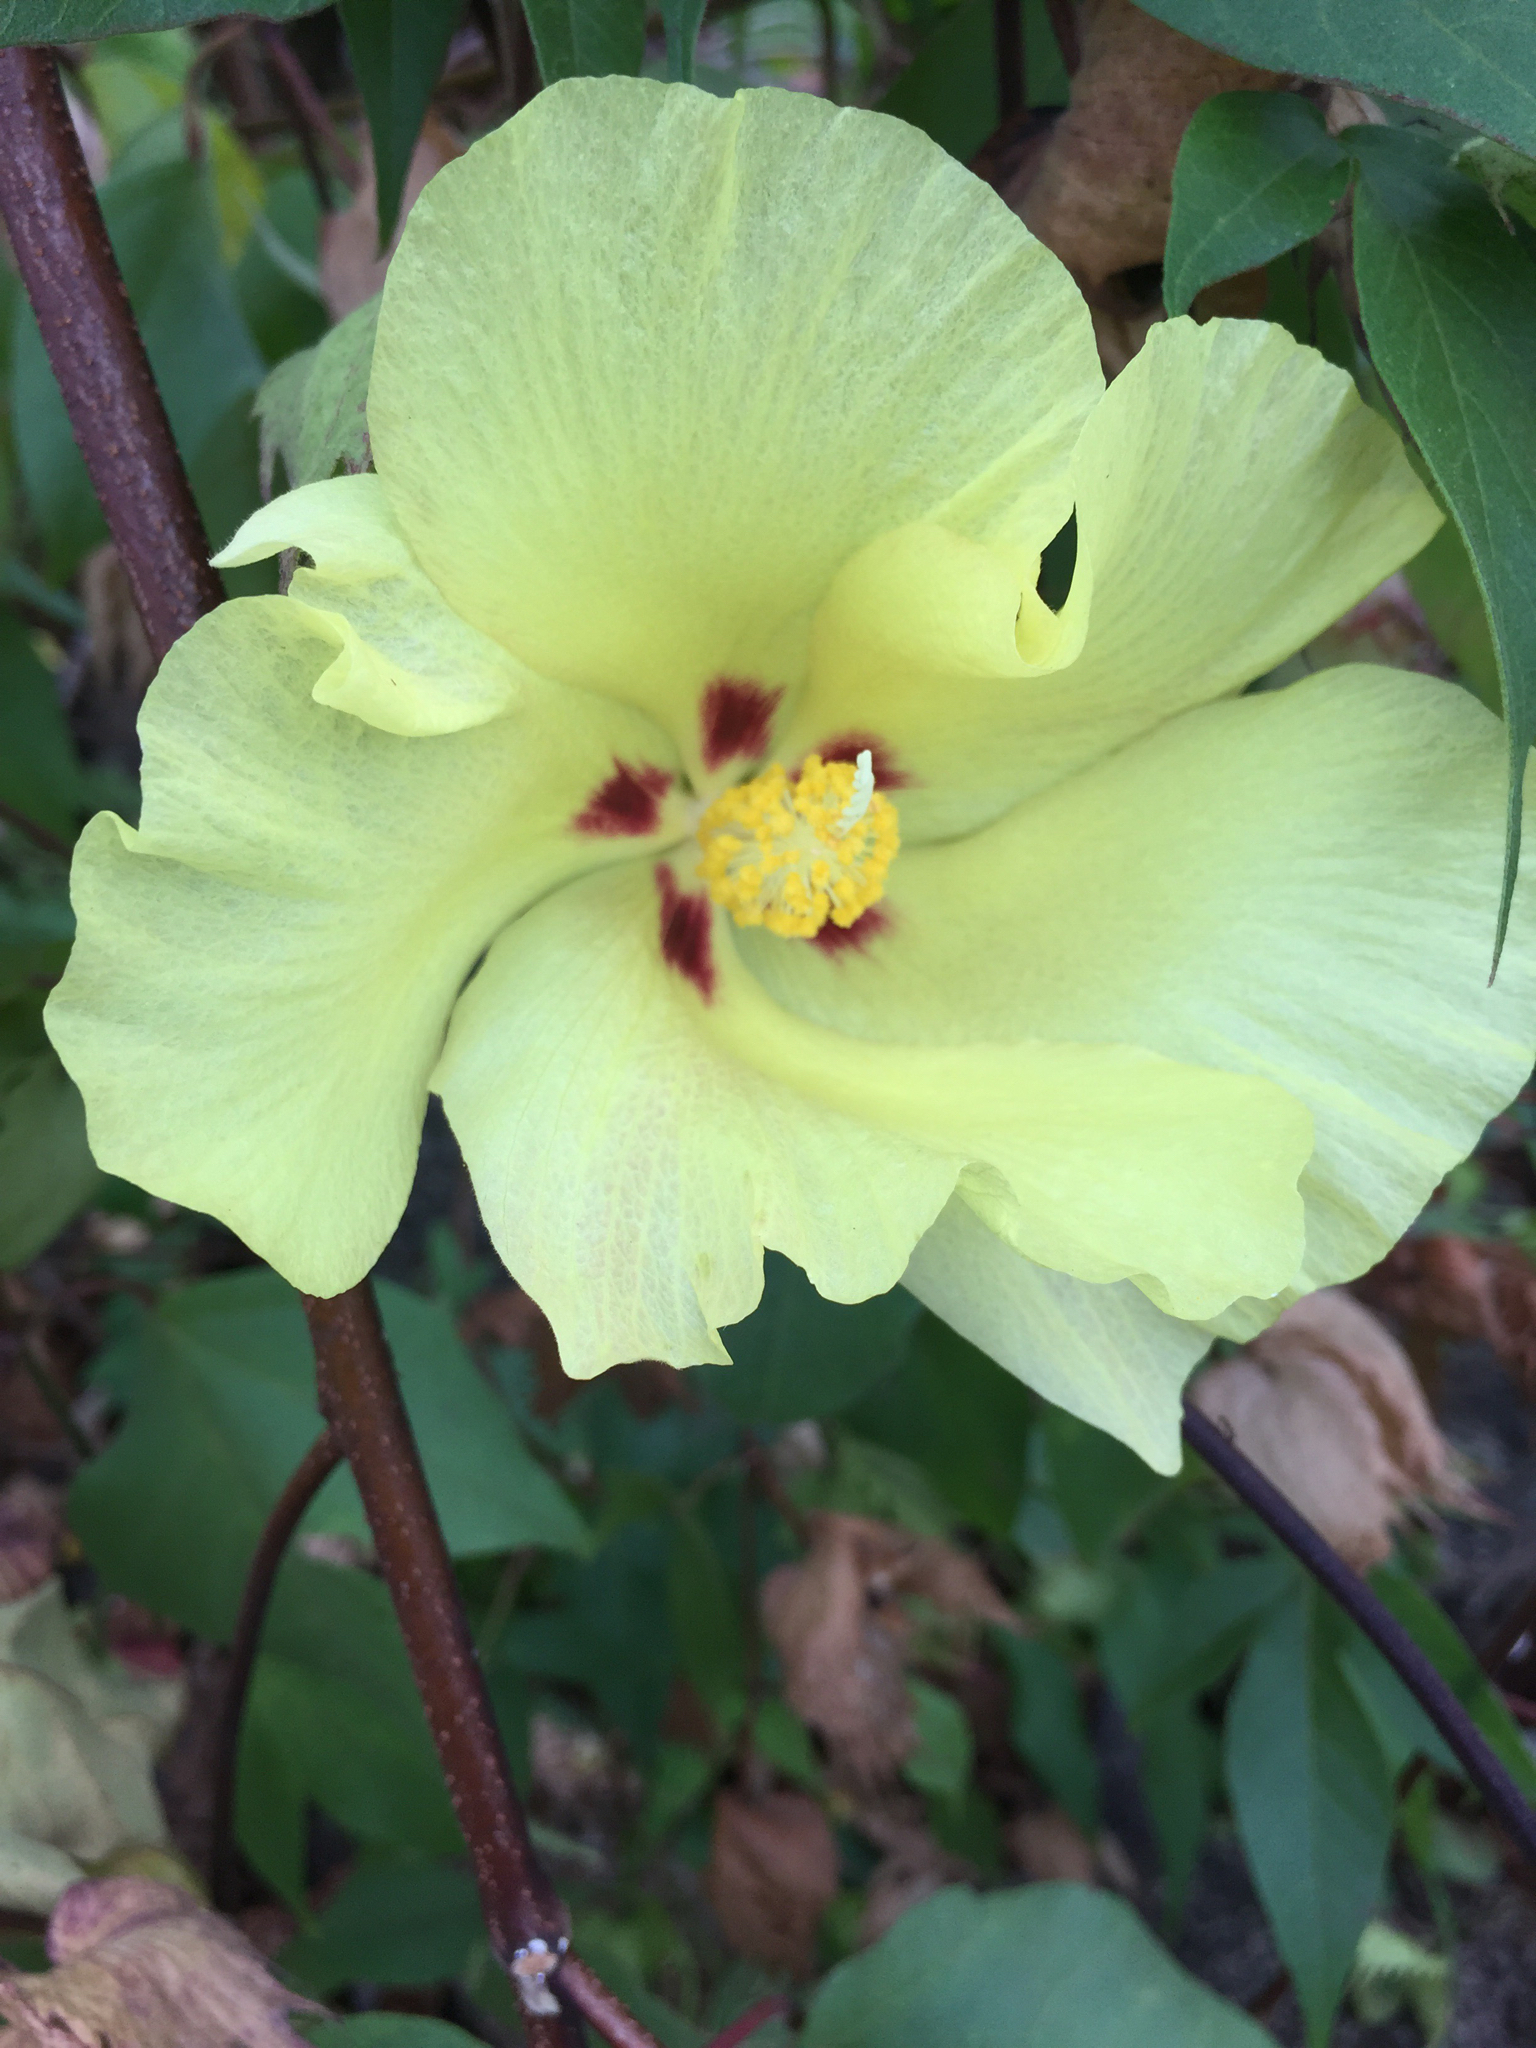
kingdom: Plantae
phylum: Tracheophyta
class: Magnoliopsida
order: Malvales
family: Malvaceae
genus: Gossypium
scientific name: Gossypium darwinii
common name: Darwin's cotton
